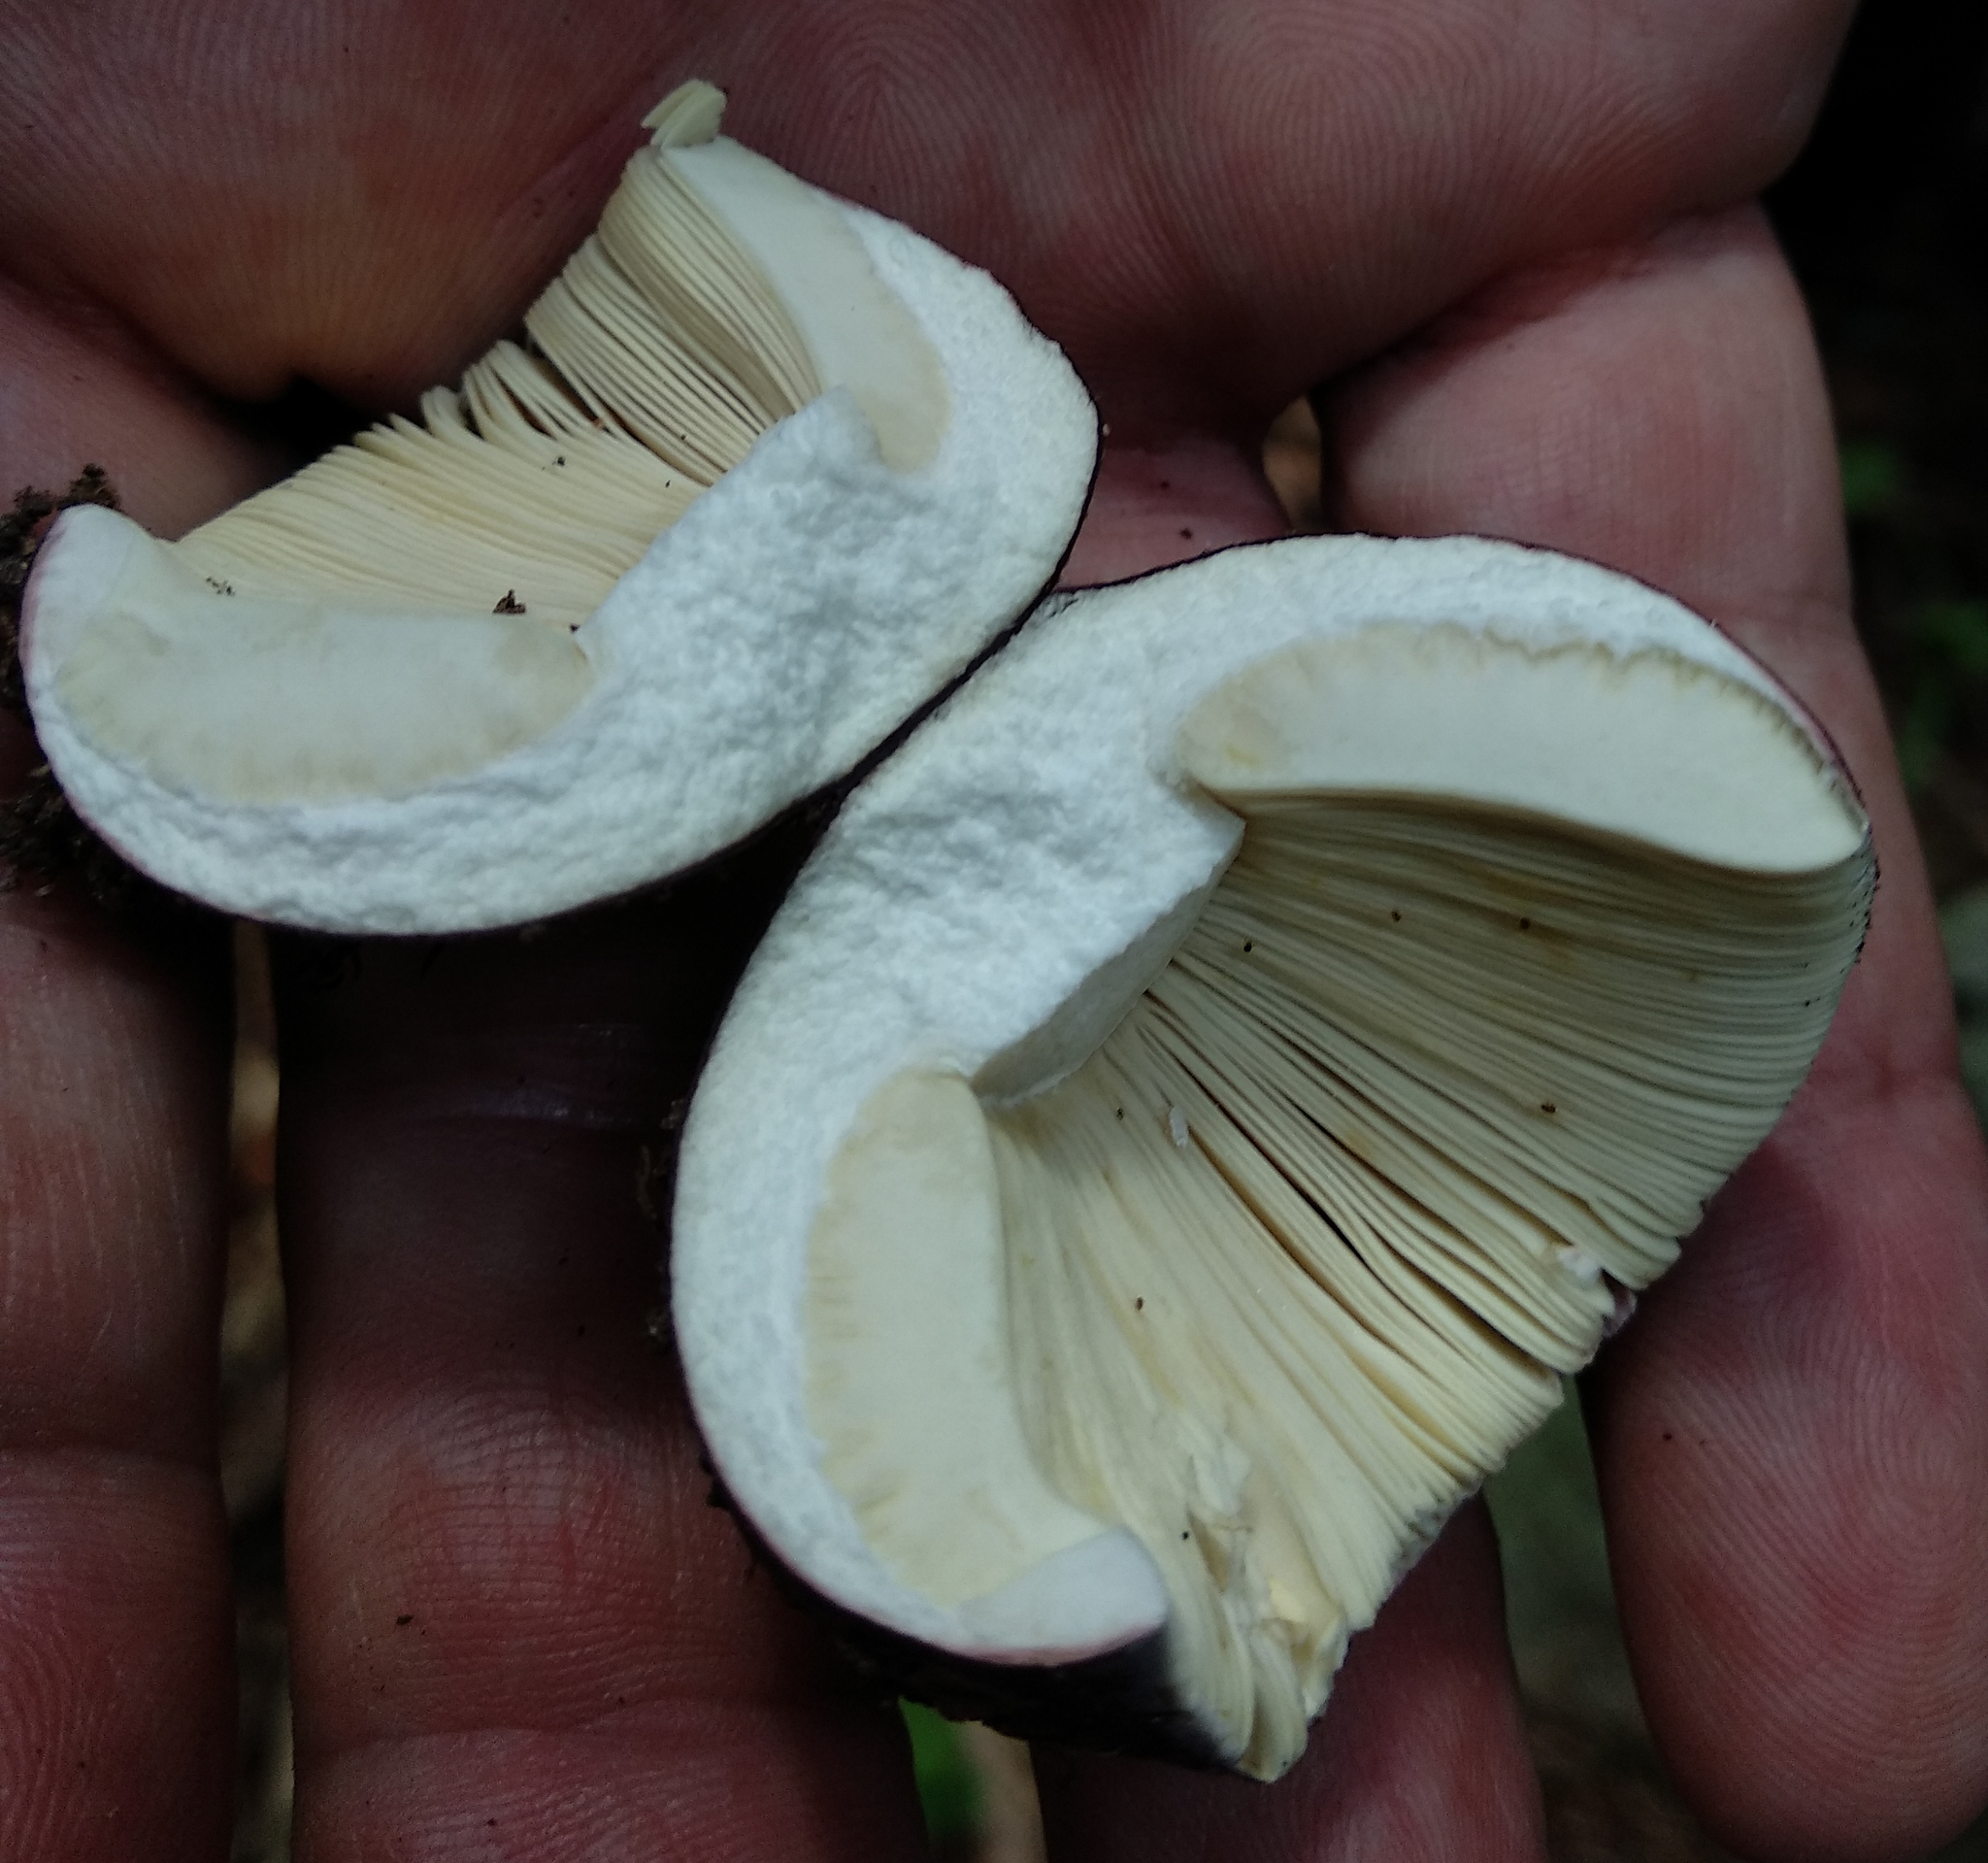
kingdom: Fungi
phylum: Basidiomycota
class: Agaricomycetes
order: Russulales
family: Russulaceae
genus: Russula
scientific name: Russula
